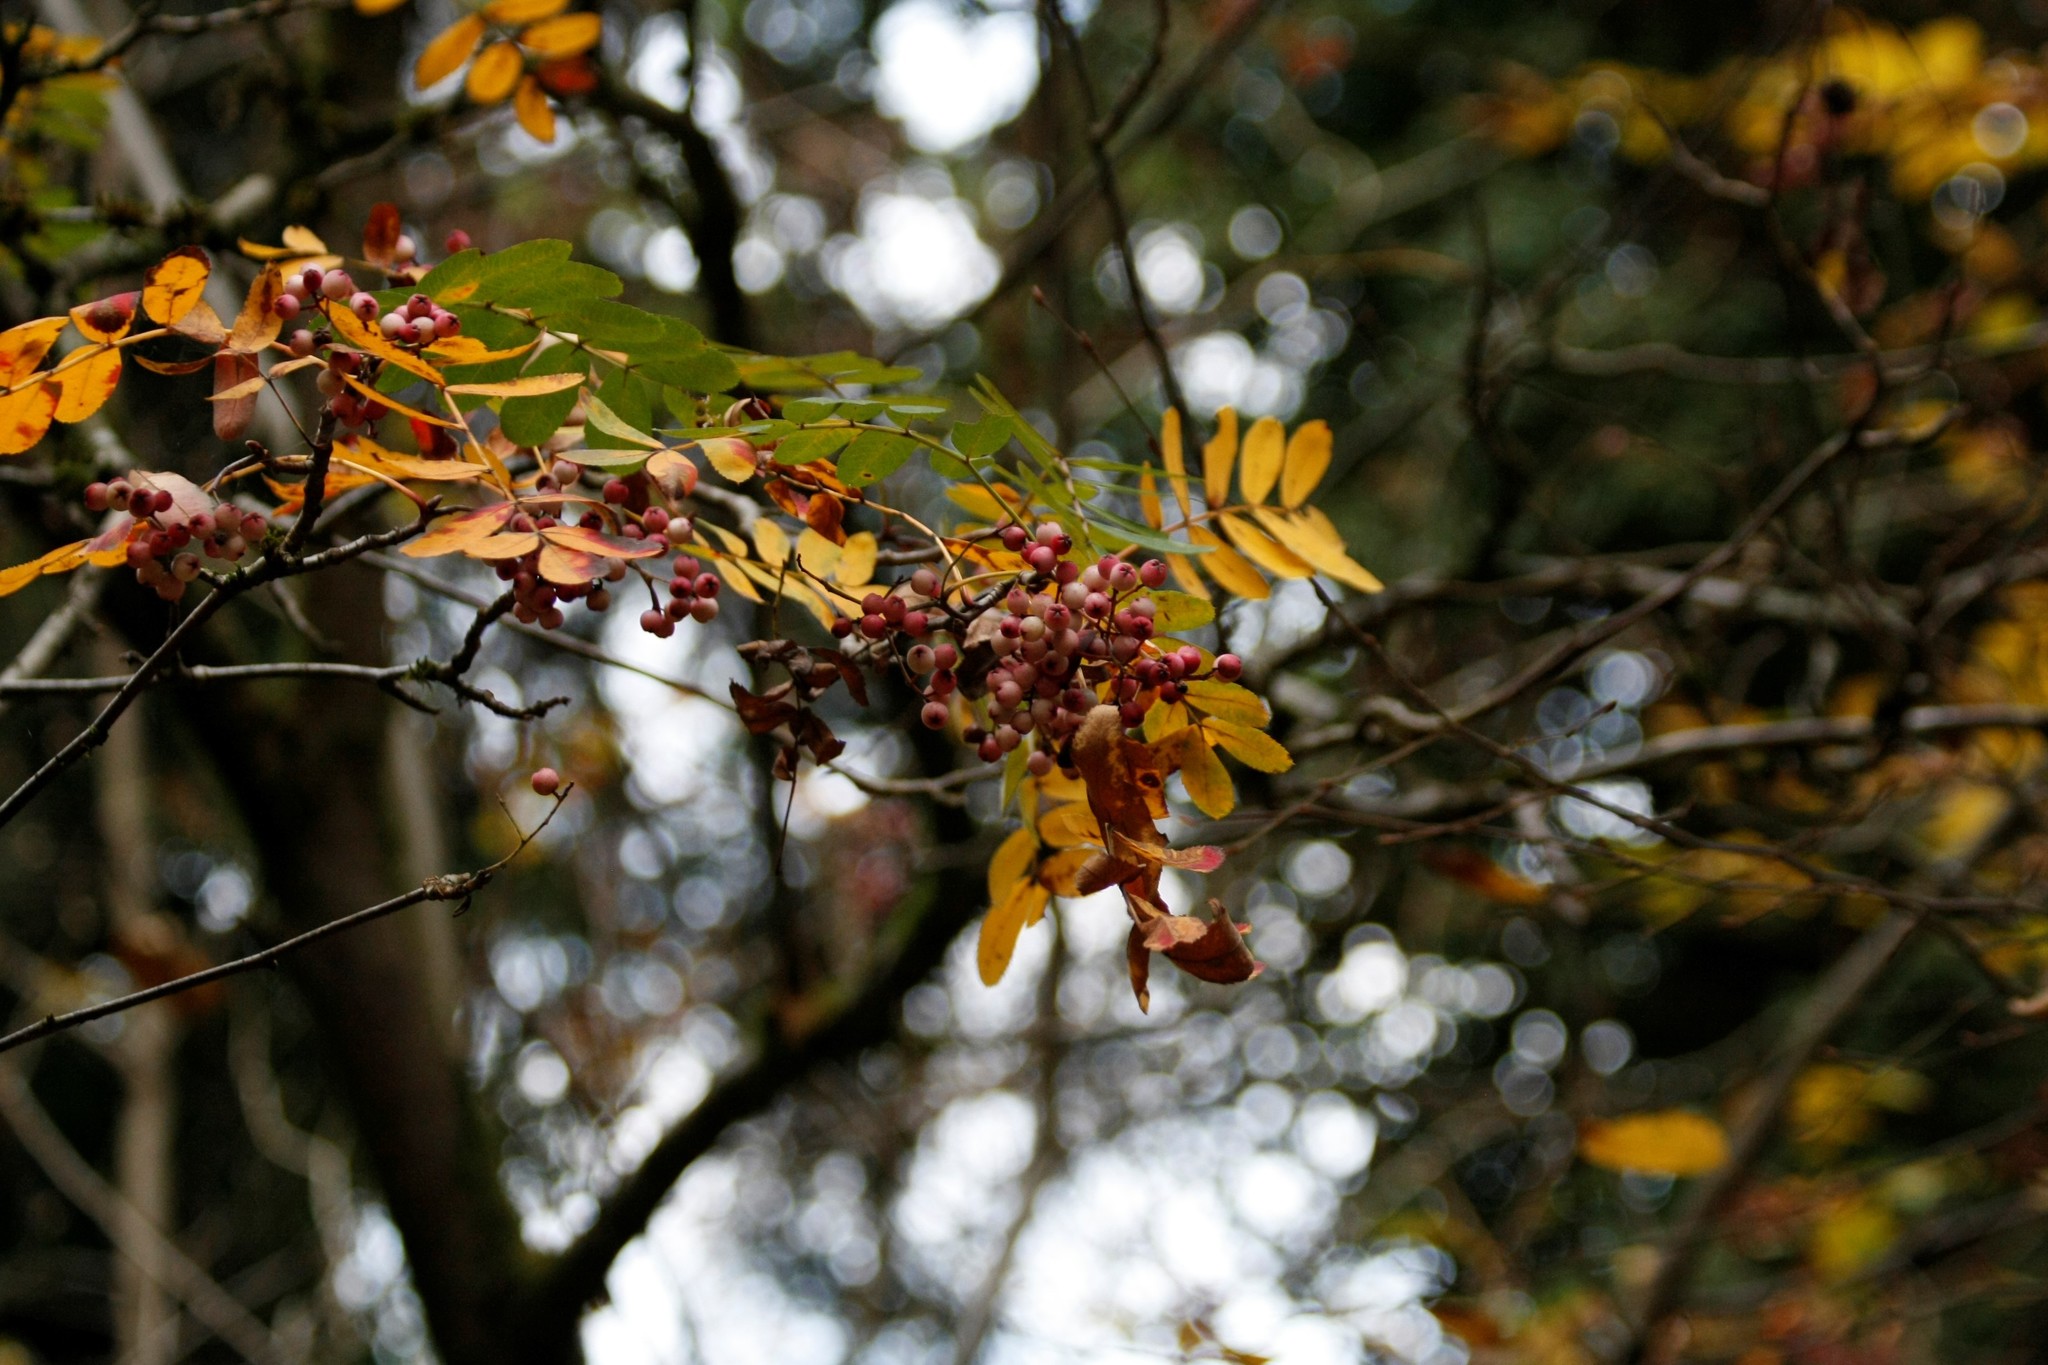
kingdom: Plantae
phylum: Tracheophyta
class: Magnoliopsida
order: Rosales
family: Rosaceae
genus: Sorbus
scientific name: Sorbus aucuparia
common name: Rowan
